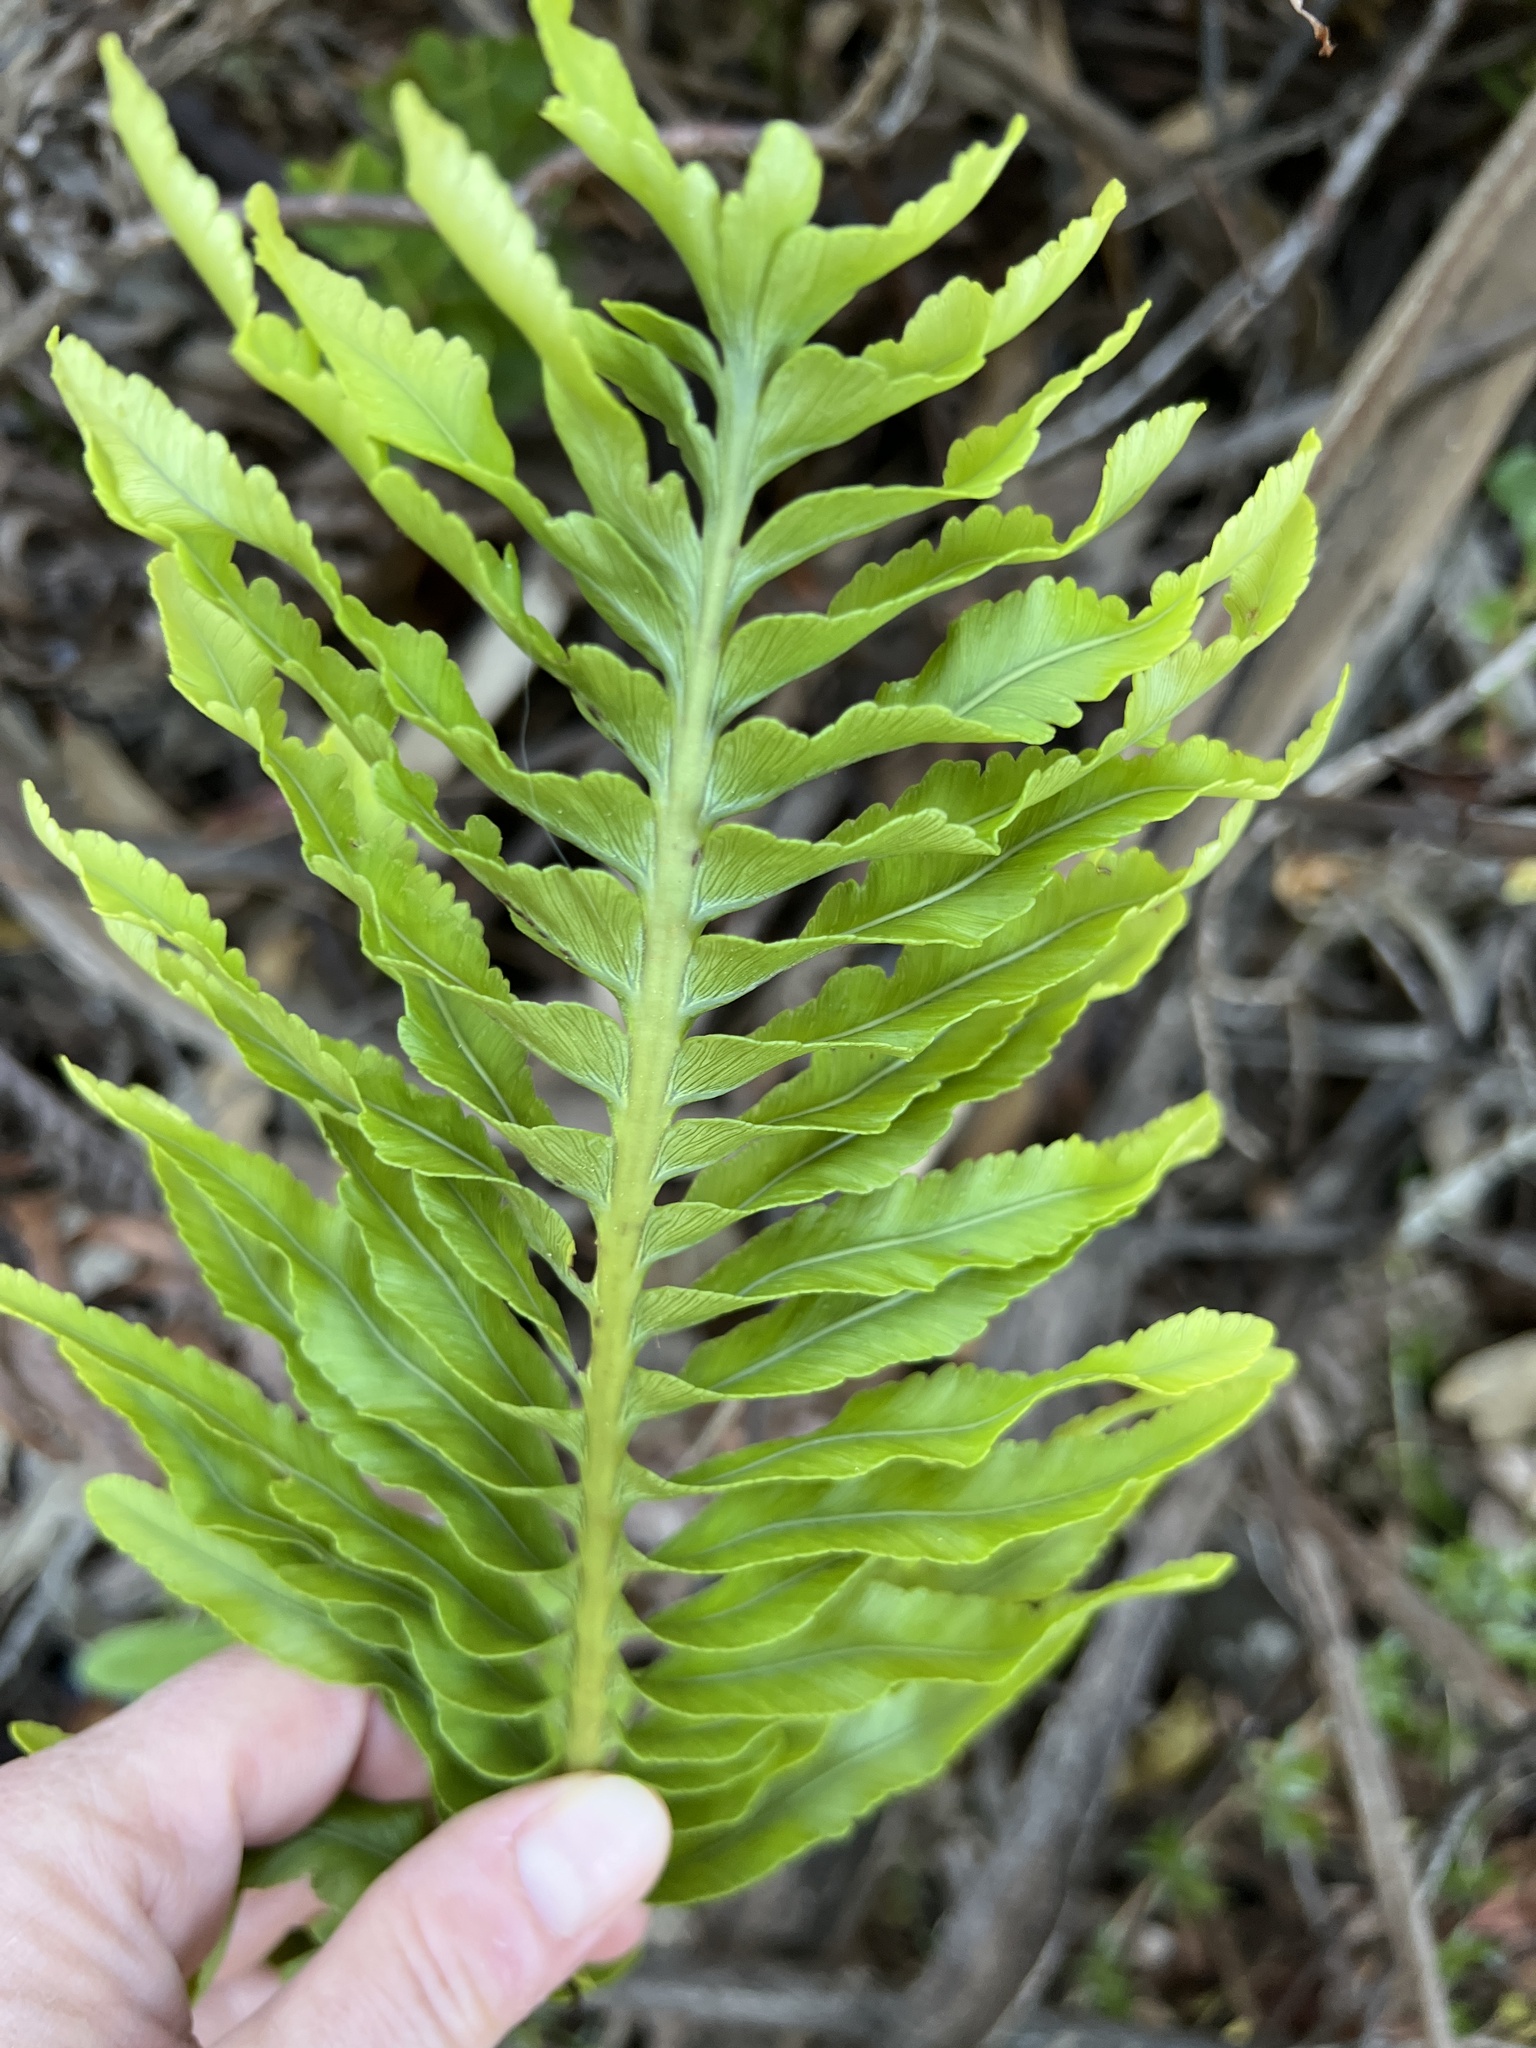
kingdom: Plantae
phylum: Tracheophyta
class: Polypodiopsida
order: Polypodiales
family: Polypodiaceae
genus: Polypodium
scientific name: Polypodium pellucidum
